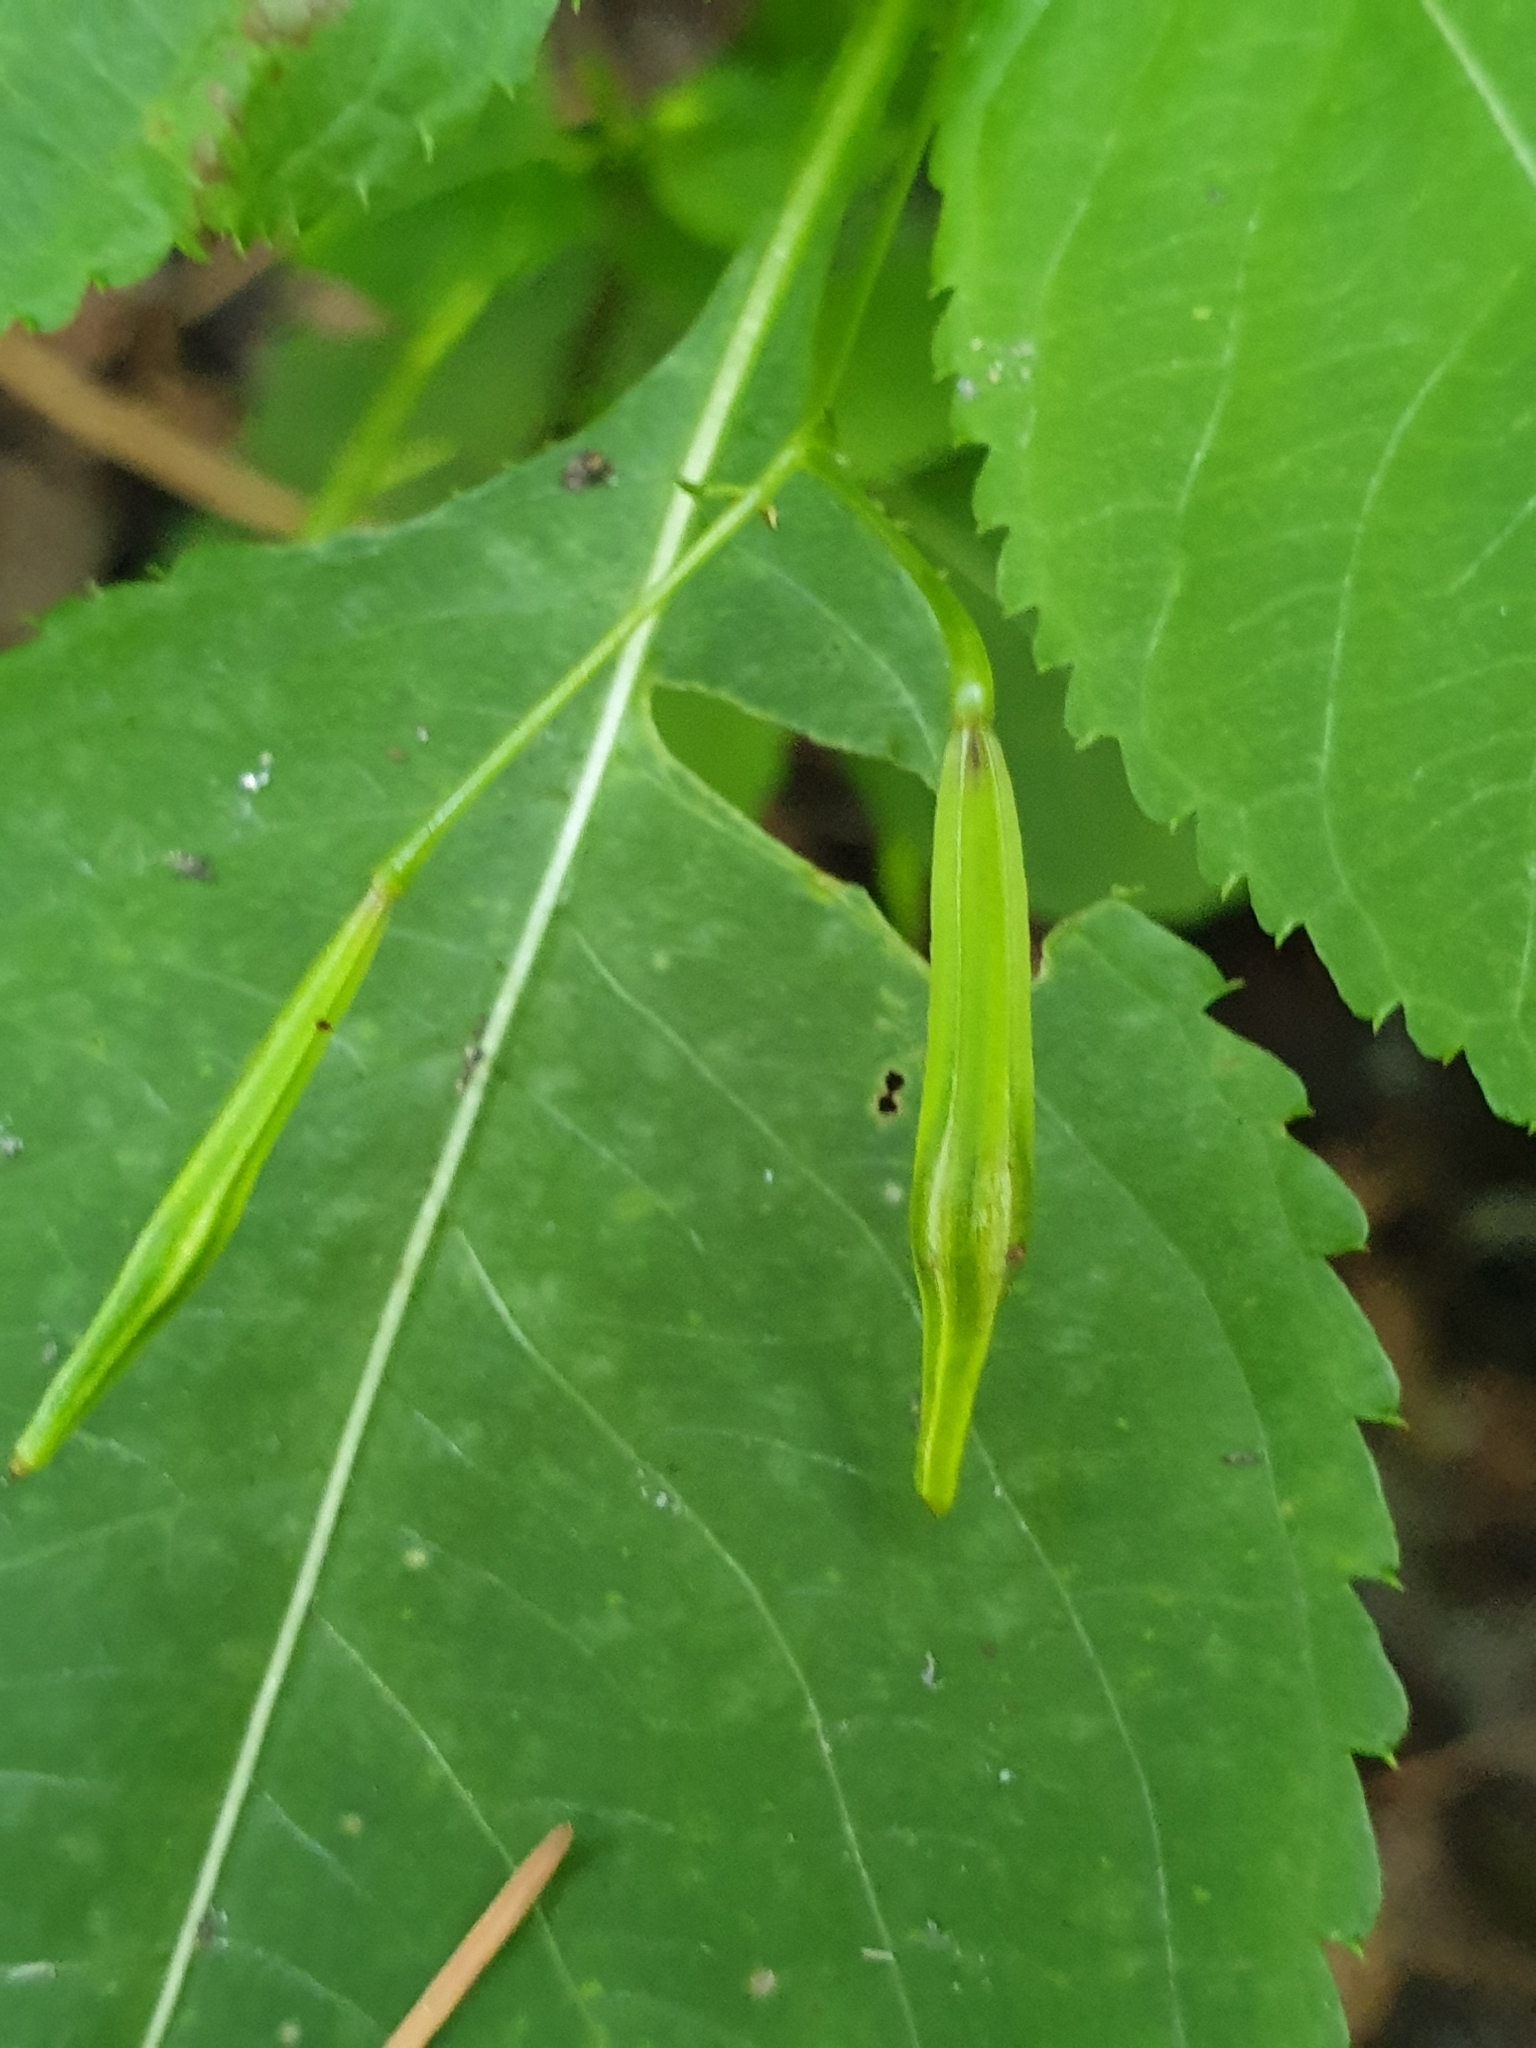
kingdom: Plantae
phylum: Tracheophyta
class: Magnoliopsida
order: Ericales
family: Balsaminaceae
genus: Impatiens
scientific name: Impatiens parviflora
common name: Small balsam
